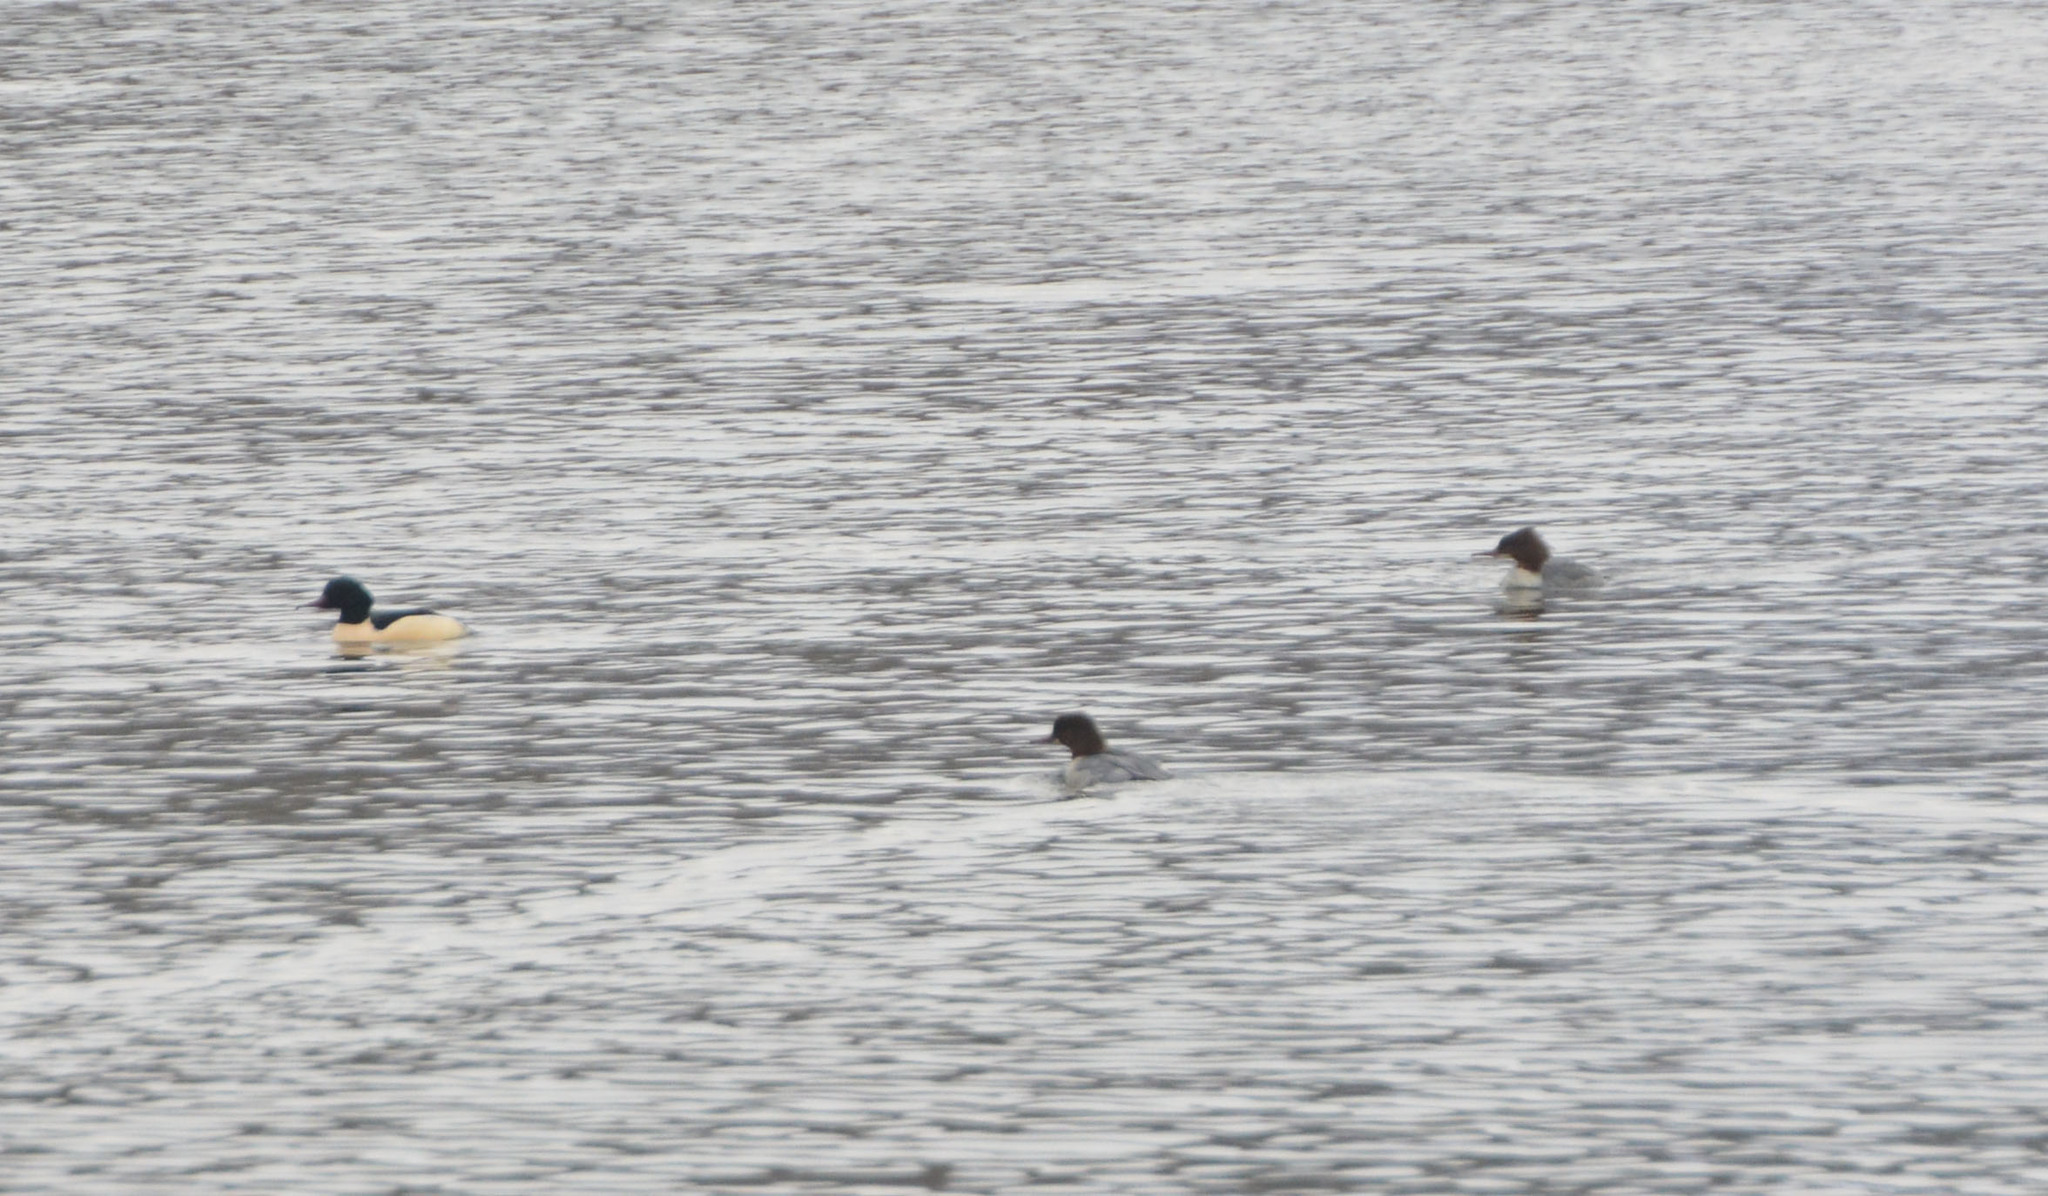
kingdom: Animalia
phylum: Chordata
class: Aves
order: Anseriformes
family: Anatidae
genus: Mergus
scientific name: Mergus merganser
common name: Common merganser
